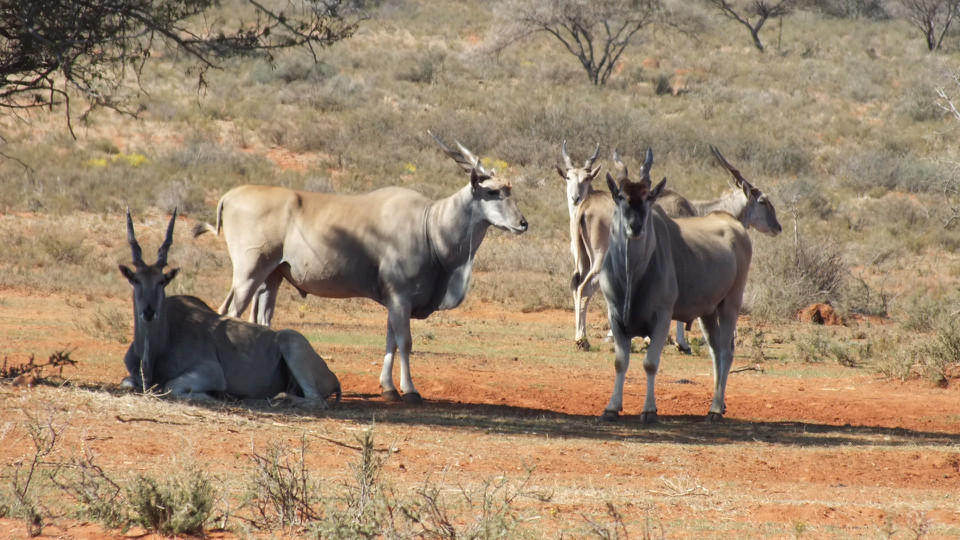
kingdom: Animalia
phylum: Chordata
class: Mammalia
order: Artiodactyla
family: Bovidae
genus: Taurotragus
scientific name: Taurotragus oryx
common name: Common eland
